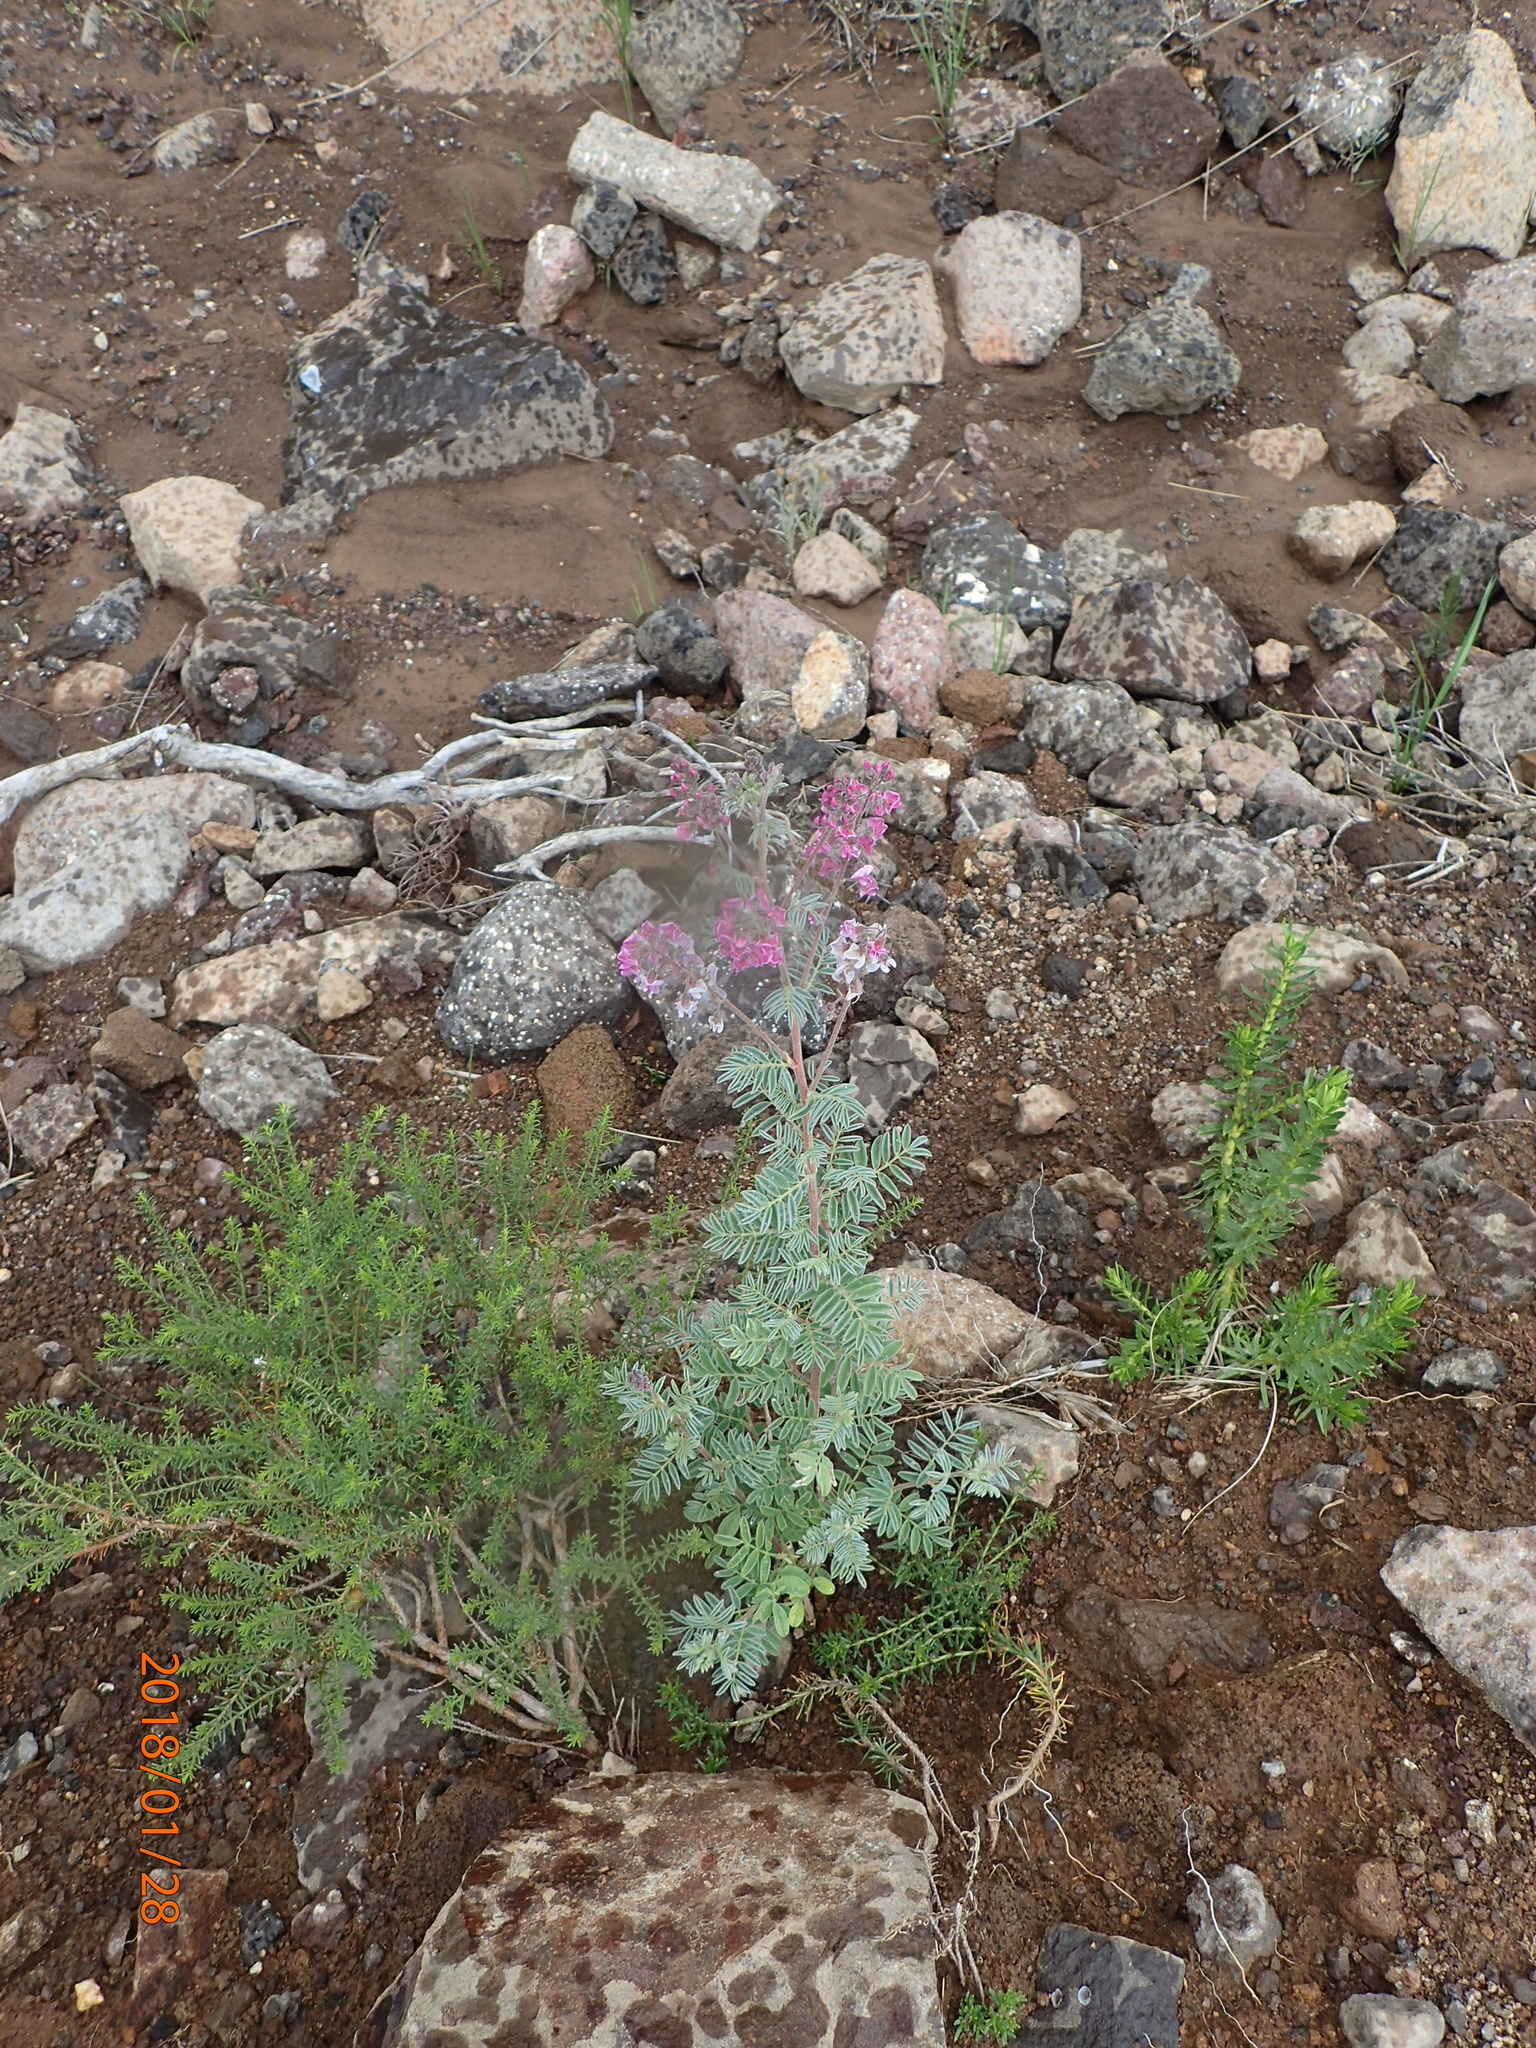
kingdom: Plantae
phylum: Tracheophyta
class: Magnoliopsida
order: Fabales
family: Fabaceae
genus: Lessertia
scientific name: Lessertia perennans
